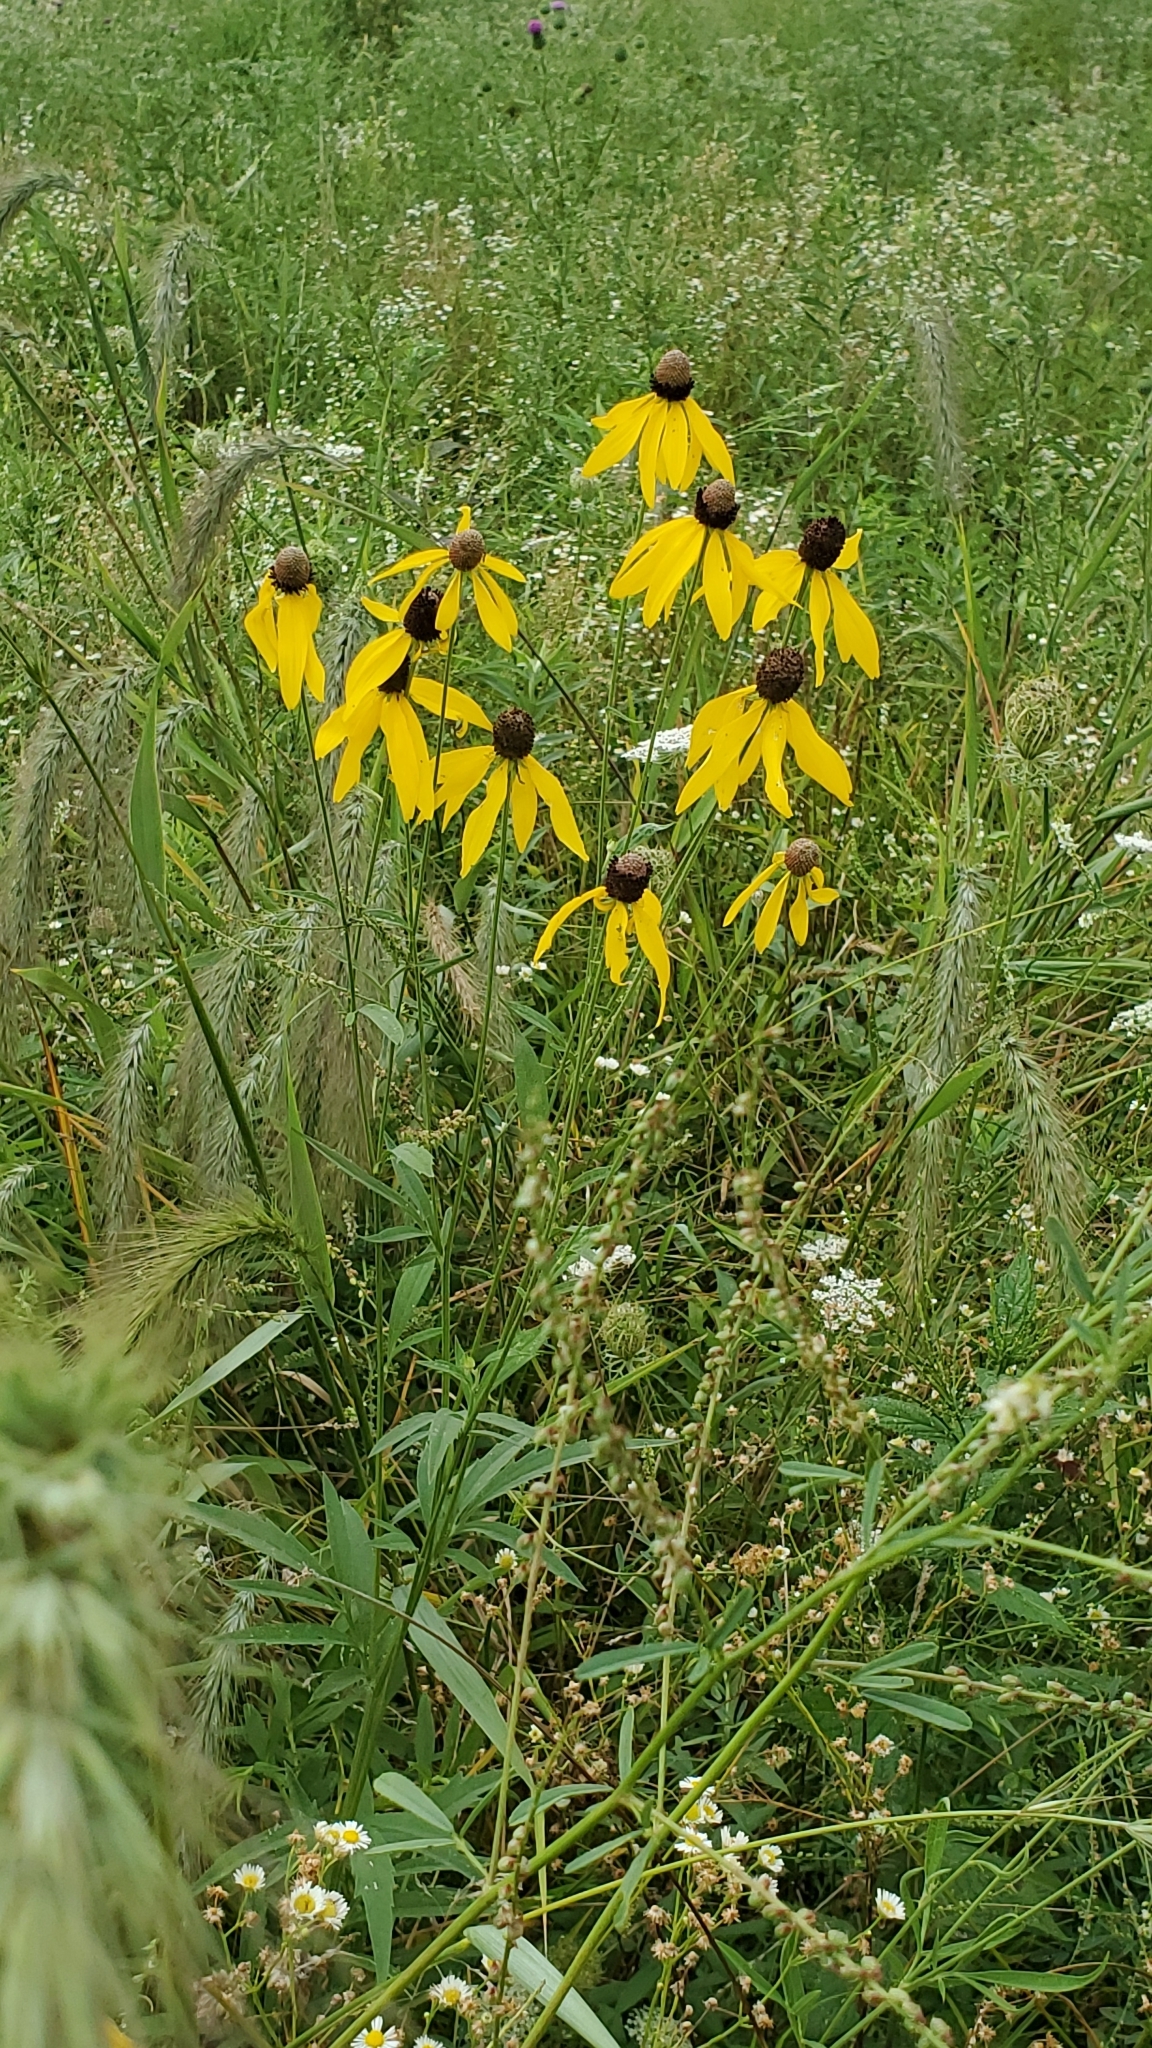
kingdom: Plantae
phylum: Tracheophyta
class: Magnoliopsida
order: Asterales
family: Asteraceae
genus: Ratibida
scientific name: Ratibida pinnata
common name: Drooping prairie-coneflower
